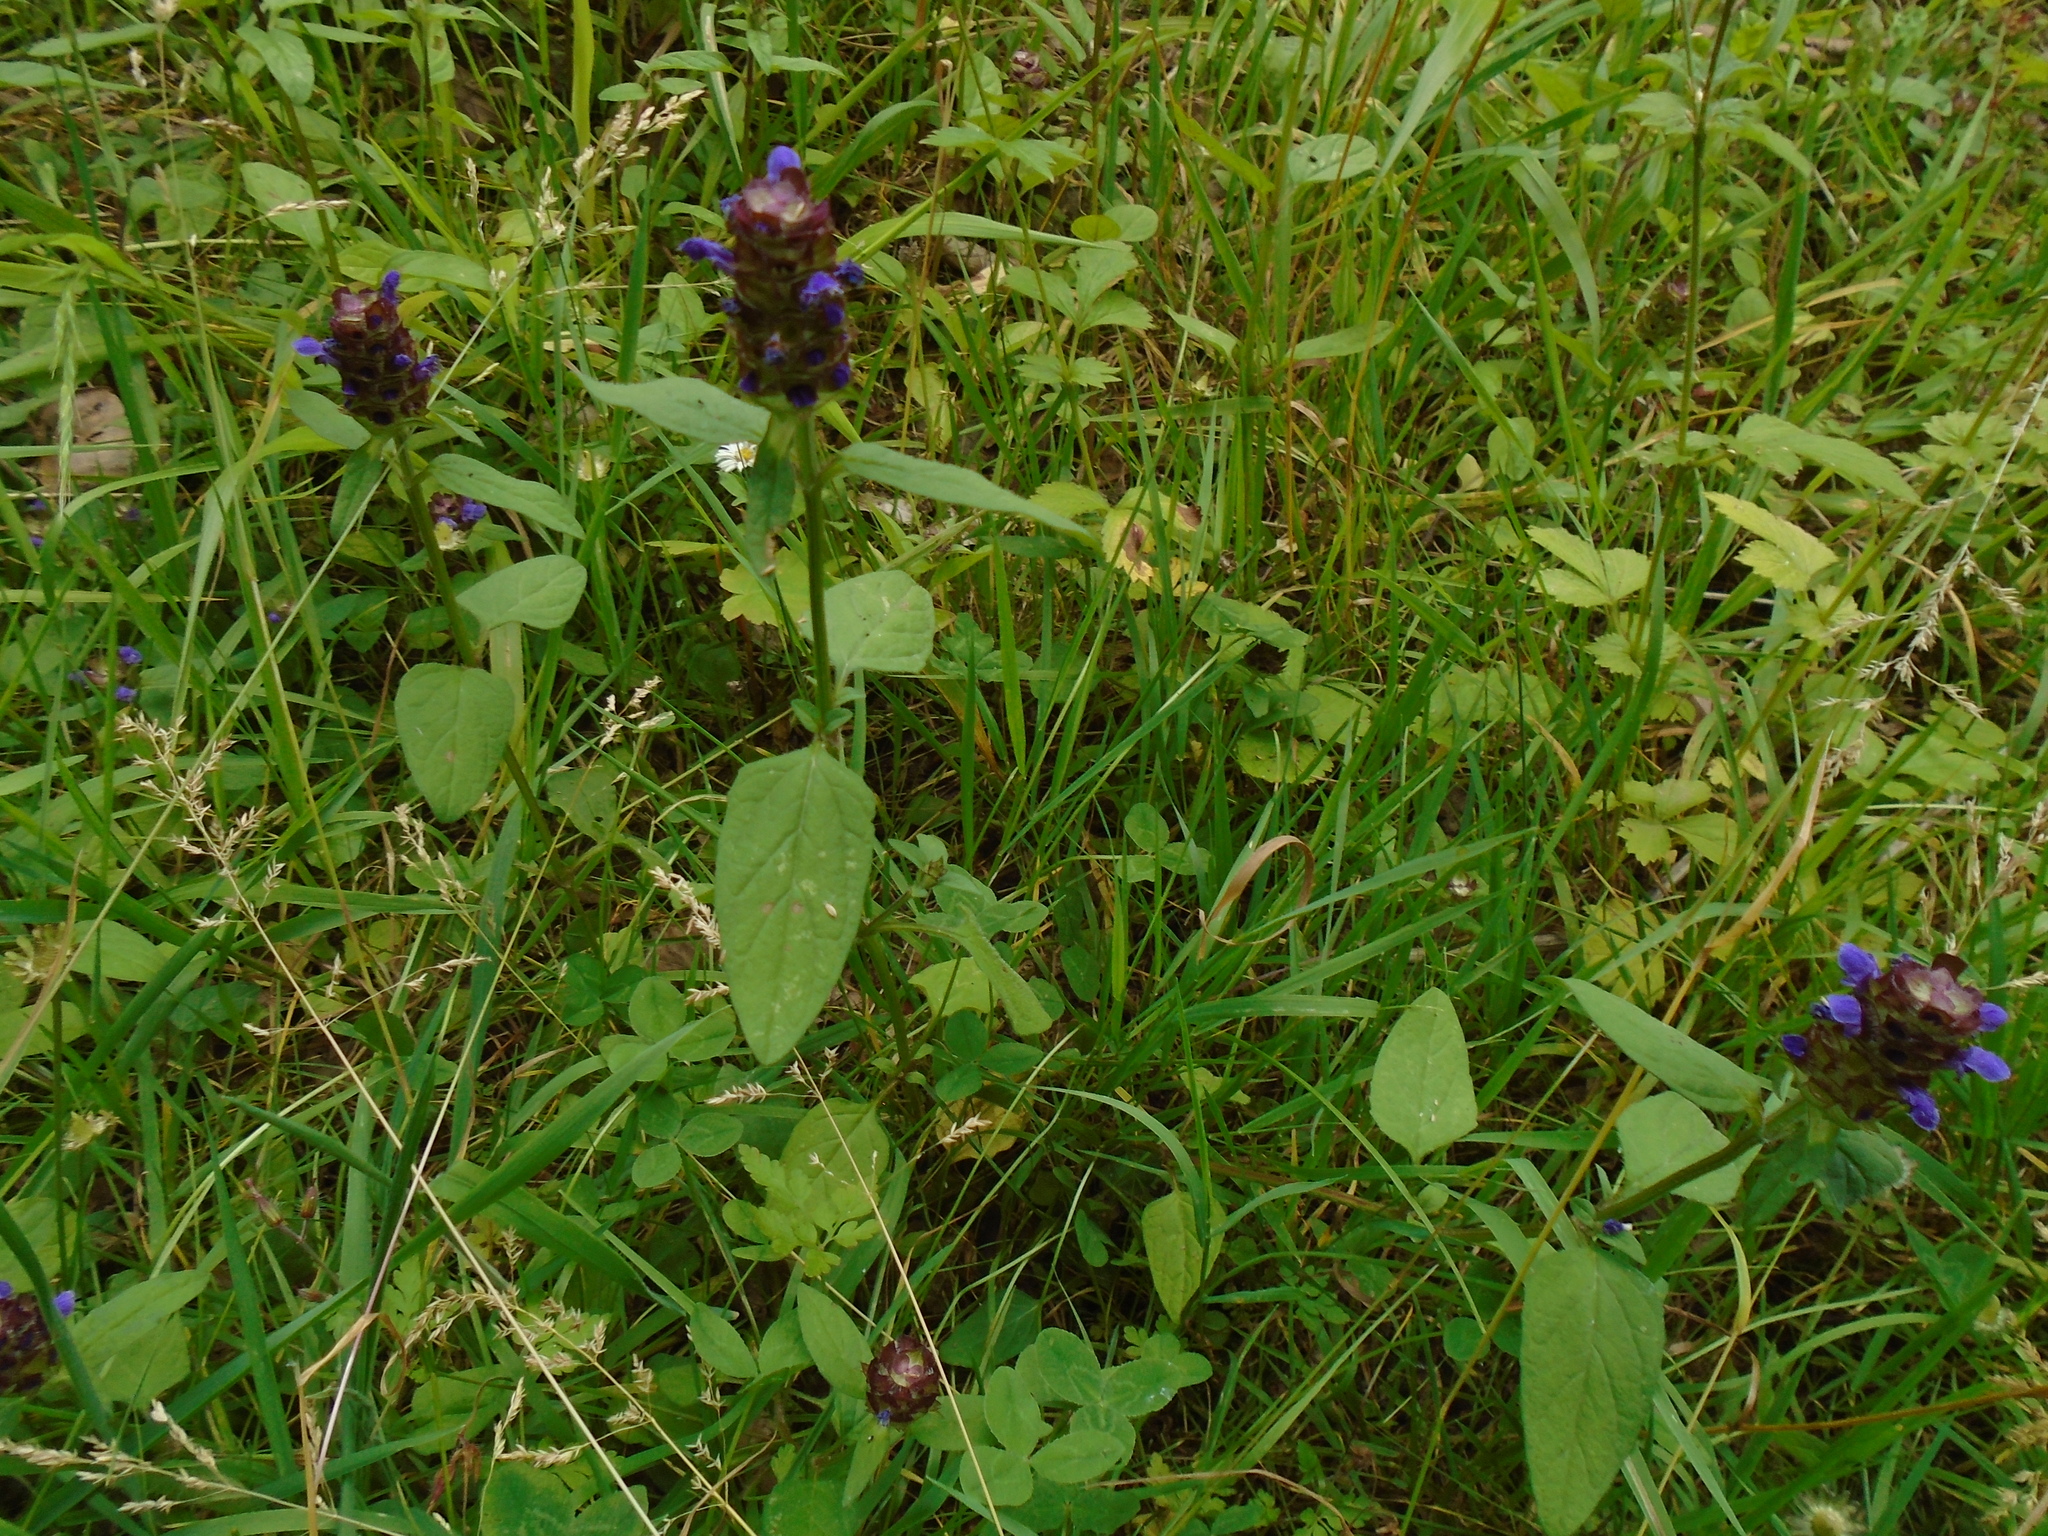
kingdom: Plantae
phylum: Tracheophyta
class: Magnoliopsida
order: Lamiales
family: Lamiaceae
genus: Prunella
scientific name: Prunella vulgaris
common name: Heal-all
